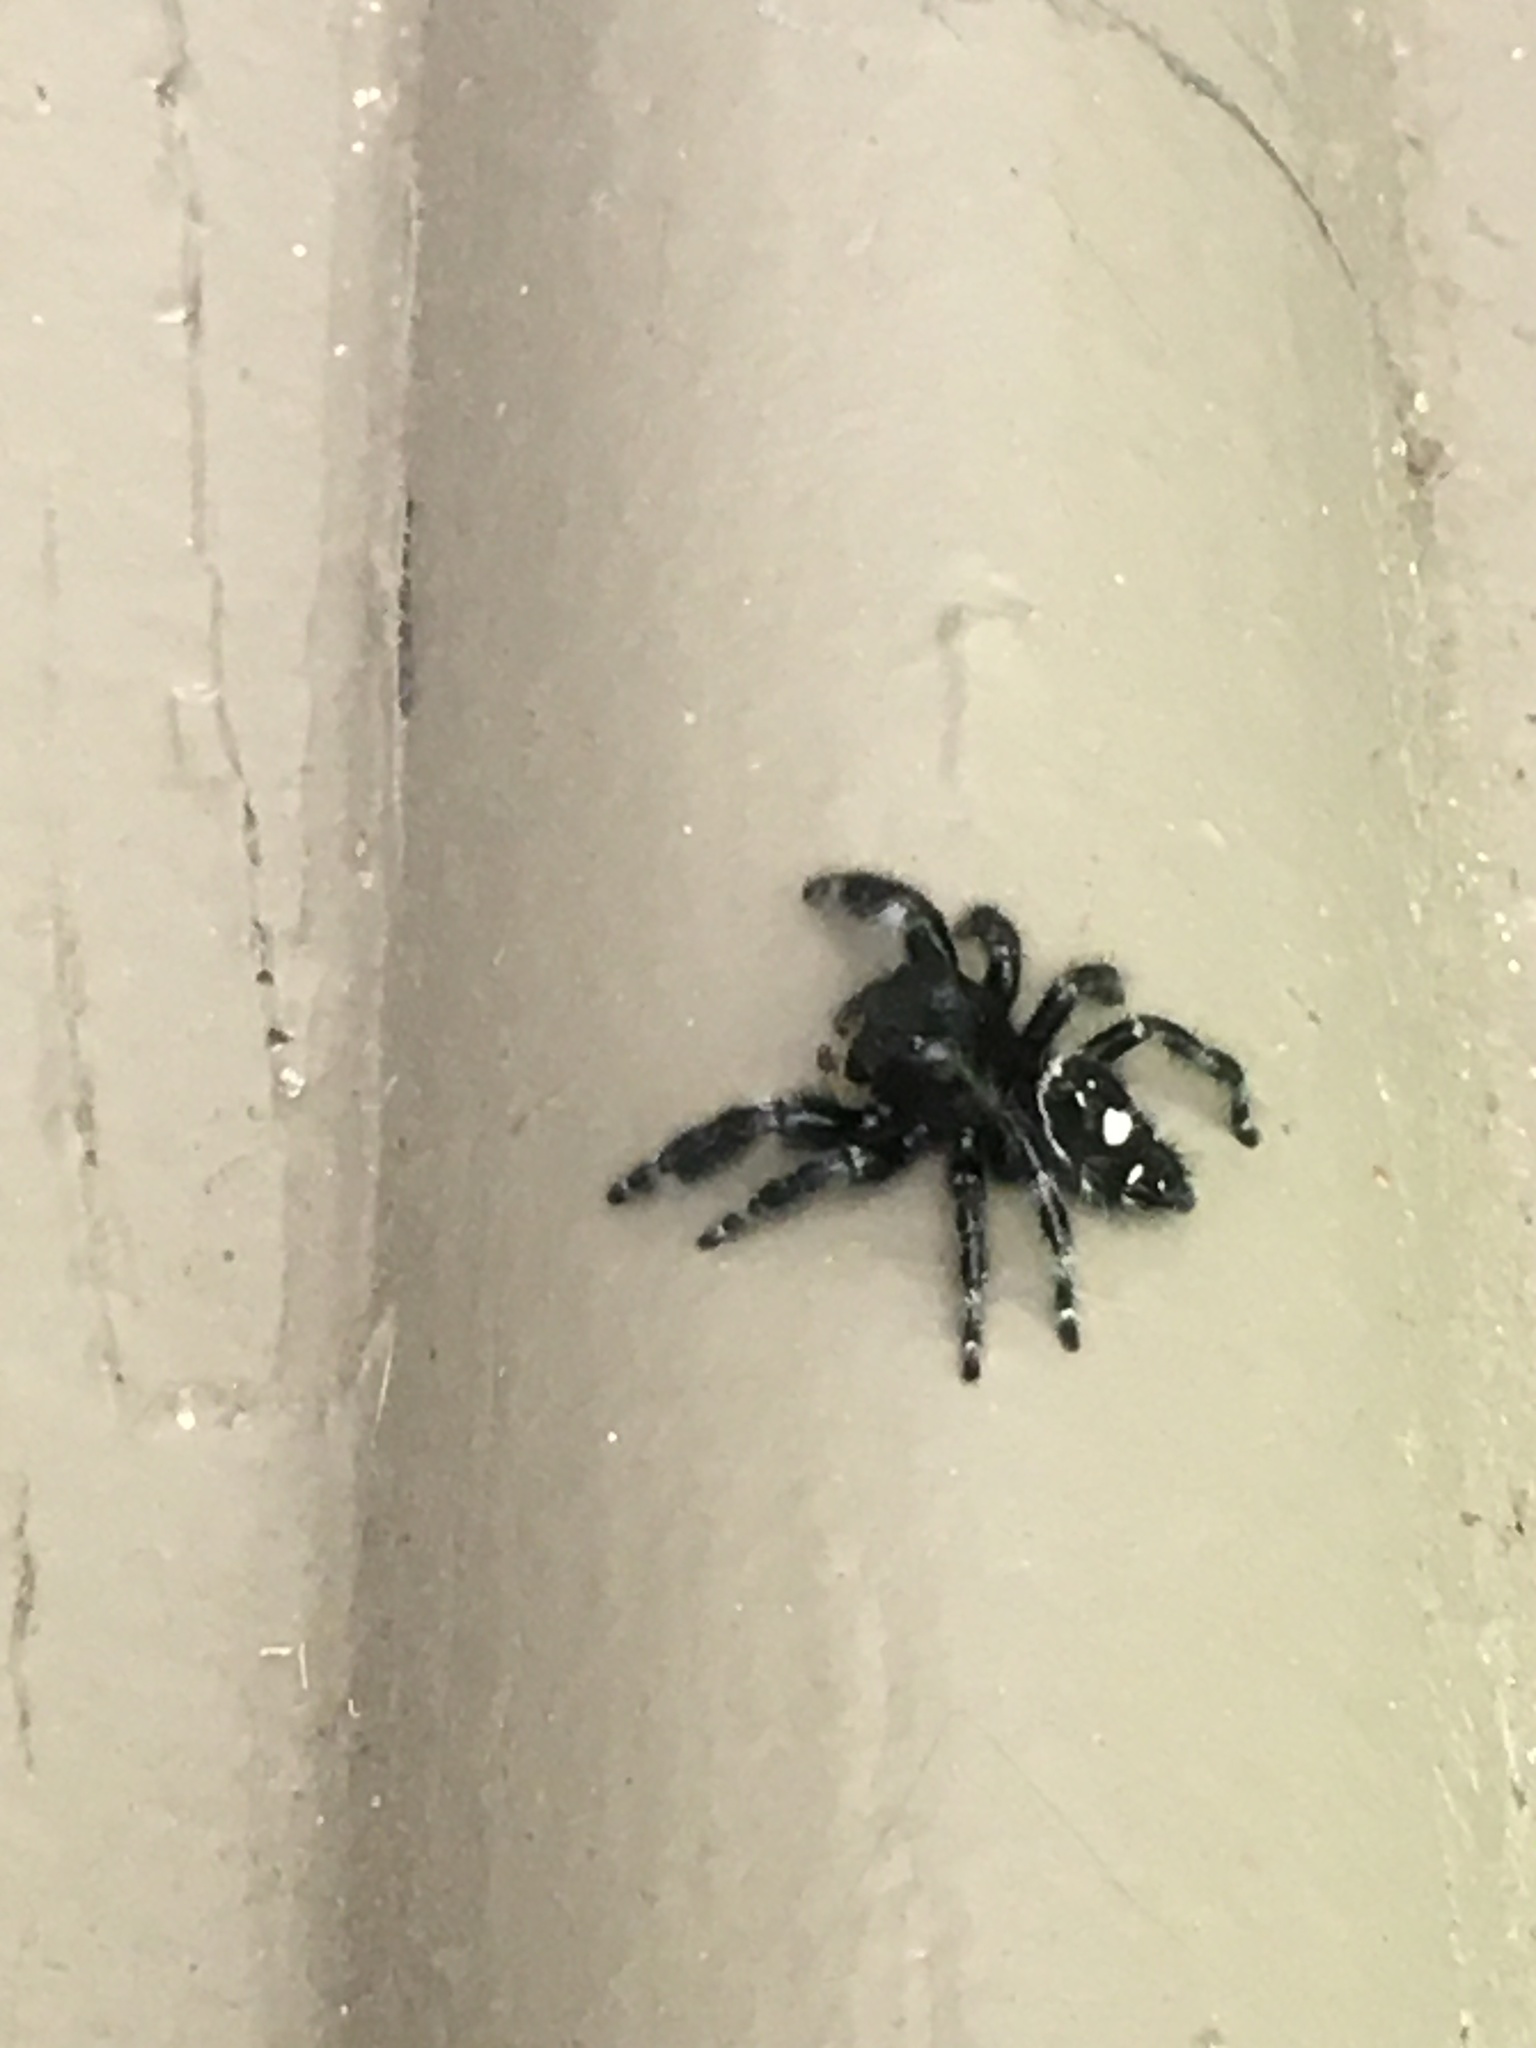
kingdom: Animalia
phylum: Arthropoda
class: Arachnida
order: Araneae
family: Salticidae
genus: Phidippus
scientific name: Phidippus audax
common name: Bold jumper
